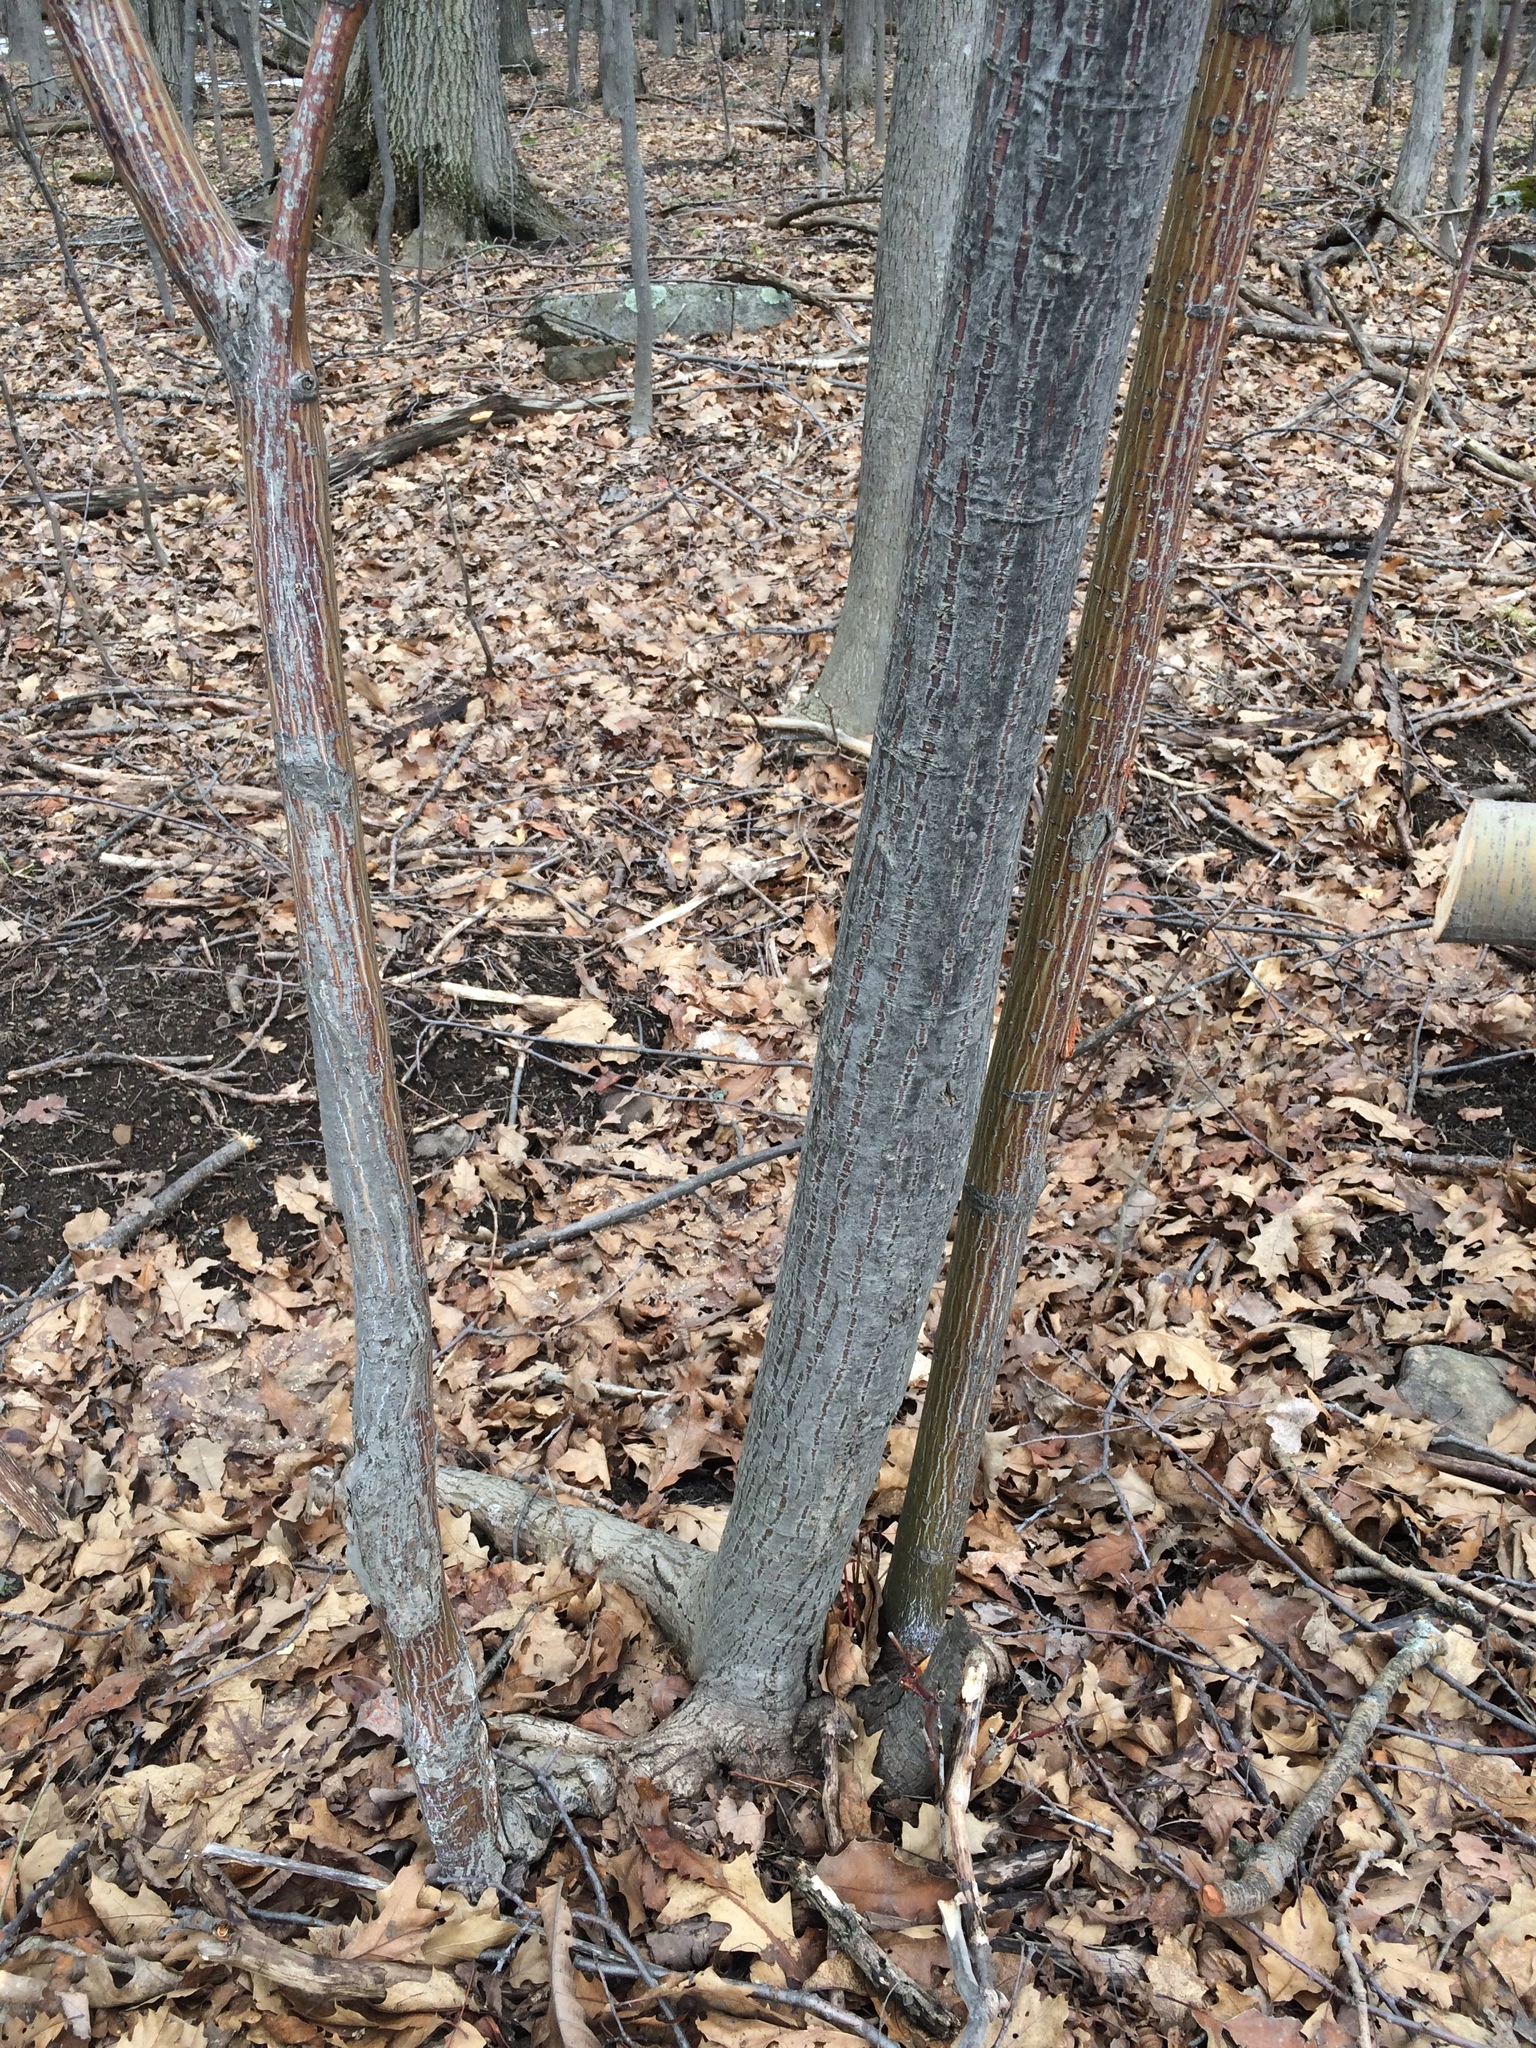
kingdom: Plantae
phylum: Tracheophyta
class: Magnoliopsida
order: Sapindales
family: Sapindaceae
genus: Acer
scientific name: Acer pensylvanicum
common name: Moosewood
